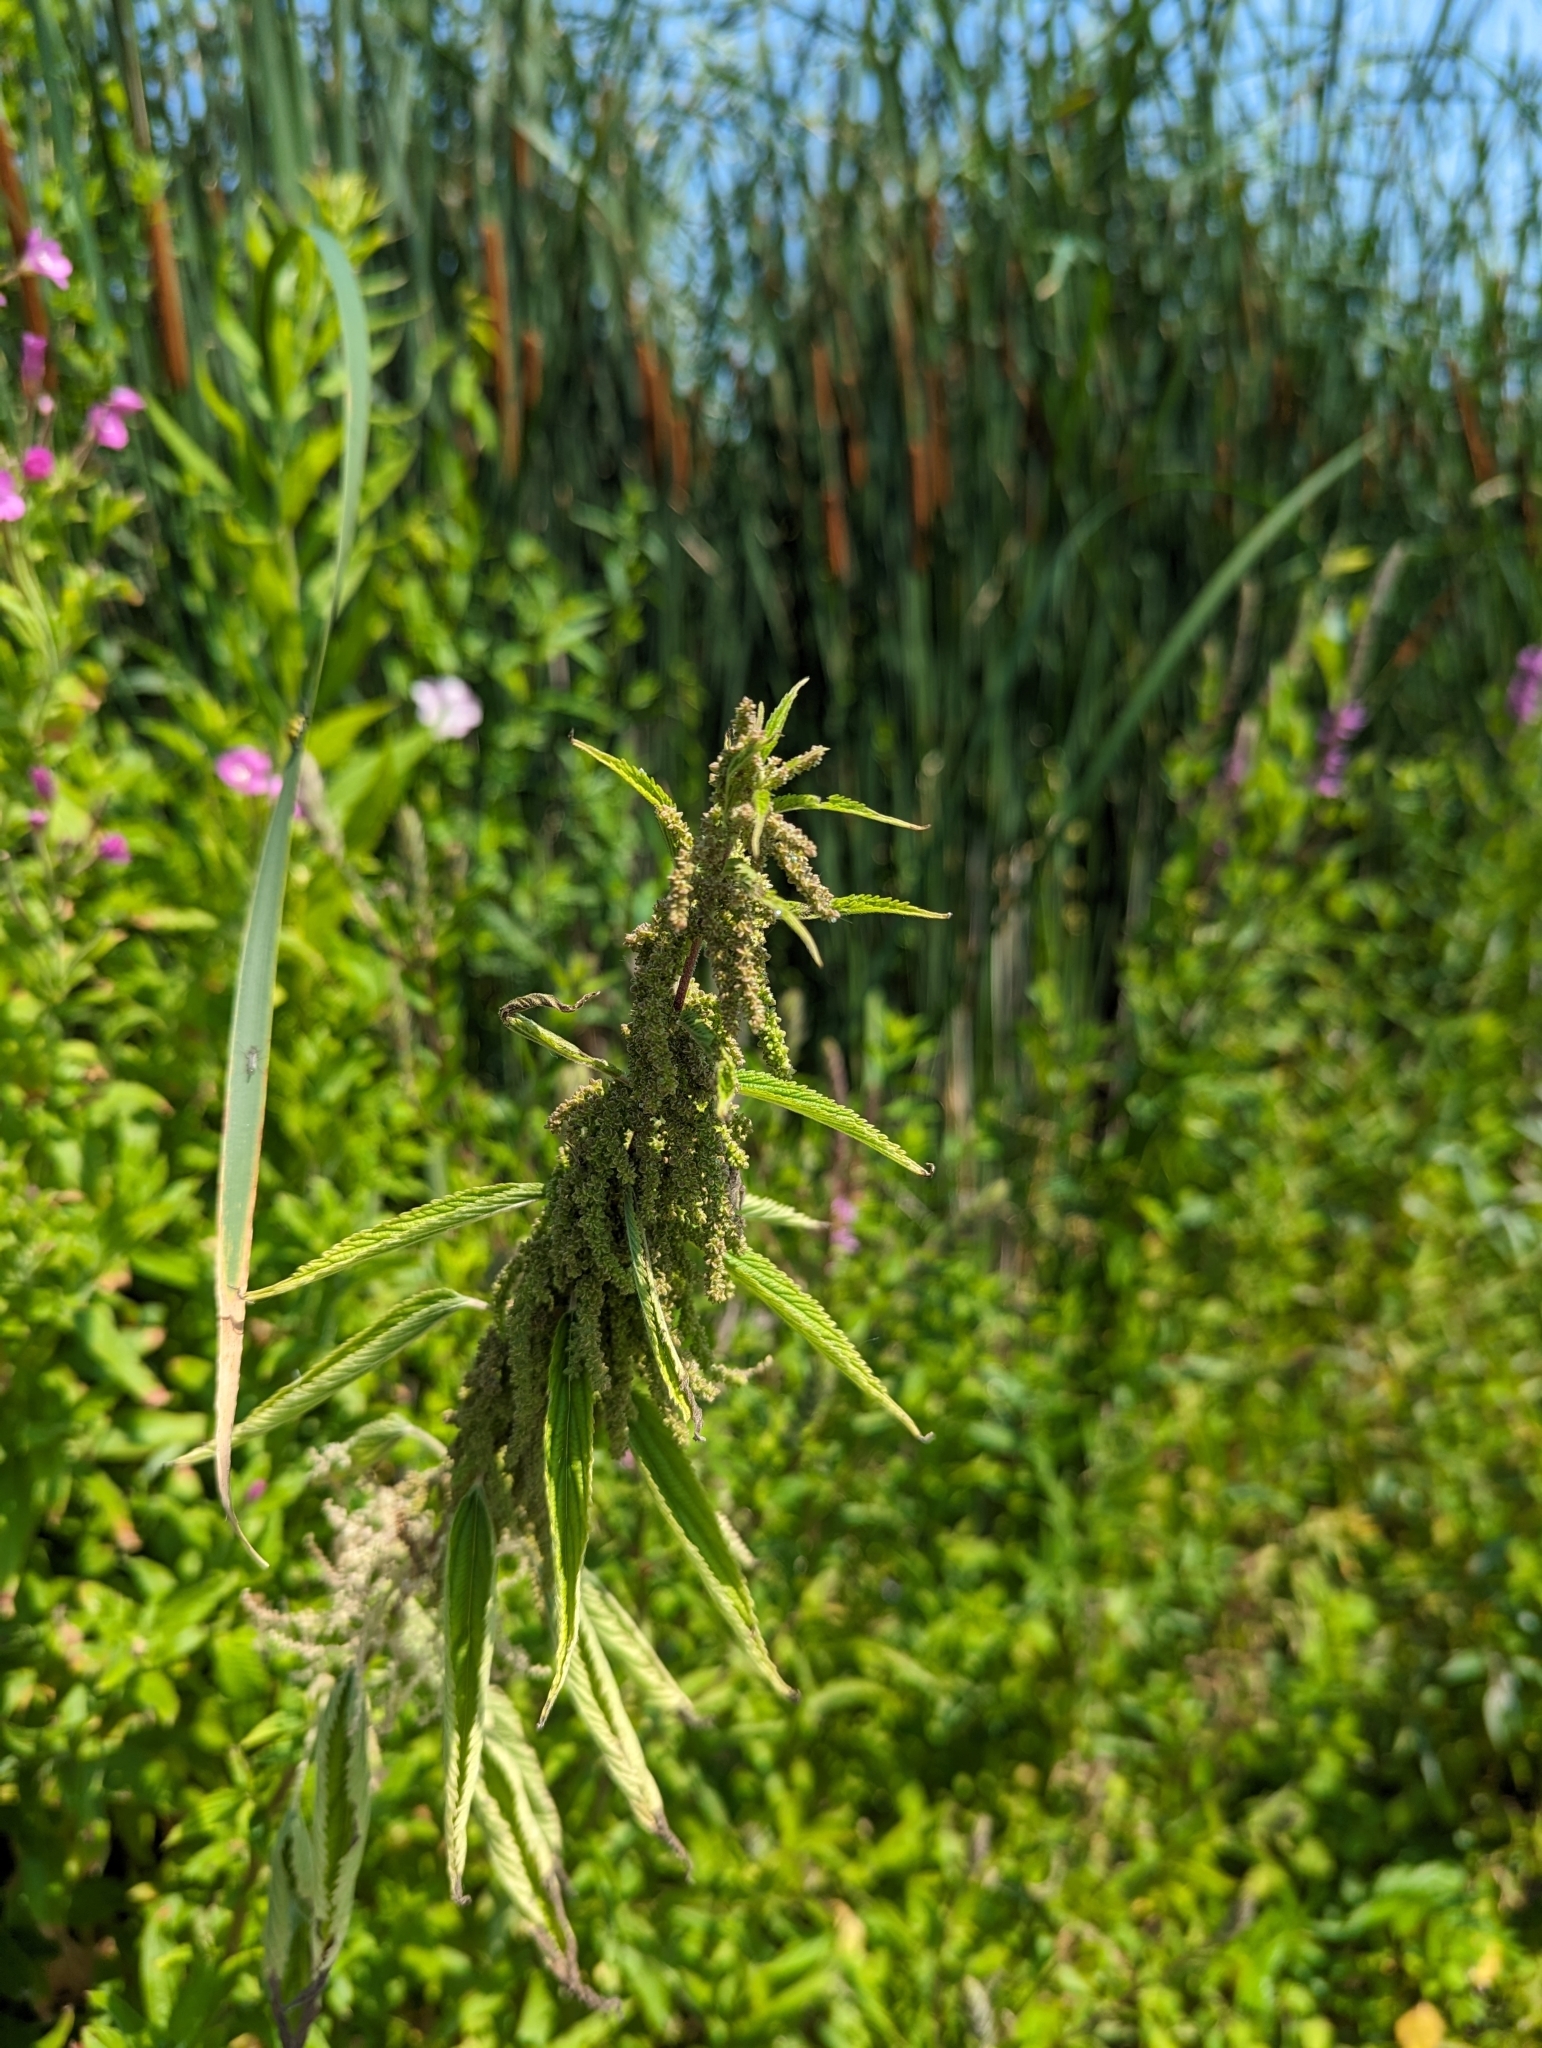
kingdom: Plantae
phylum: Tracheophyta
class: Magnoliopsida
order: Rosales
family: Urticaceae
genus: Urtica
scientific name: Urtica gracilis
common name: Slender stinging nettle
